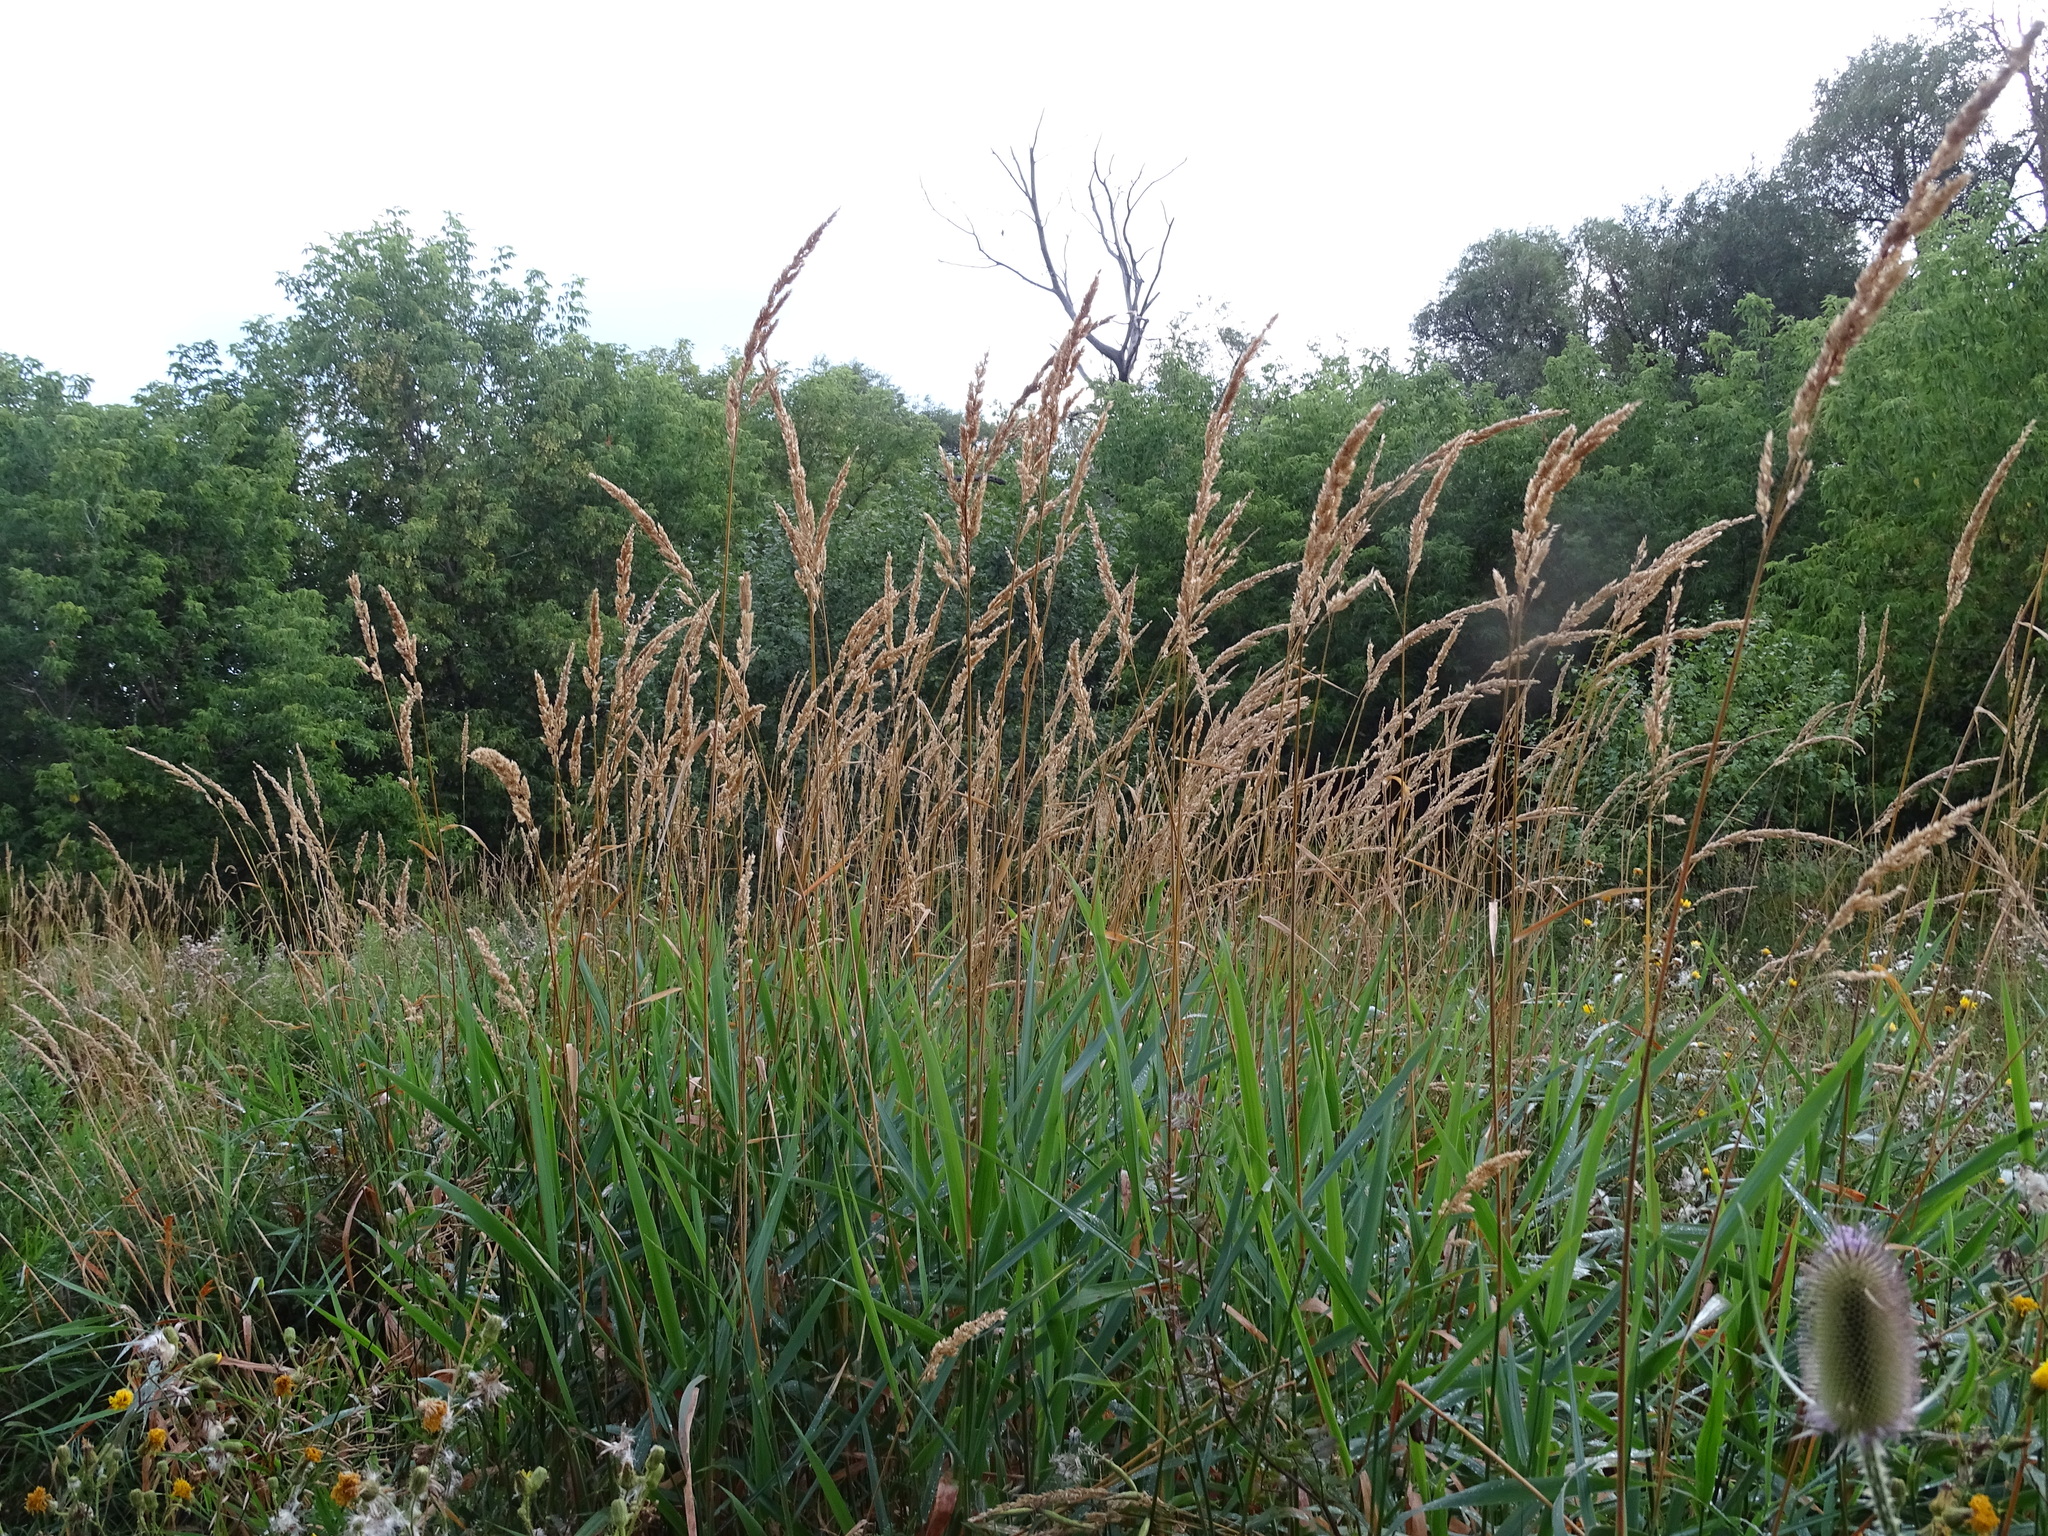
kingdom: Plantae
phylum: Tracheophyta
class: Liliopsida
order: Poales
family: Poaceae
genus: Phalaris
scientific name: Phalaris arundinacea
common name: Reed canary-grass
